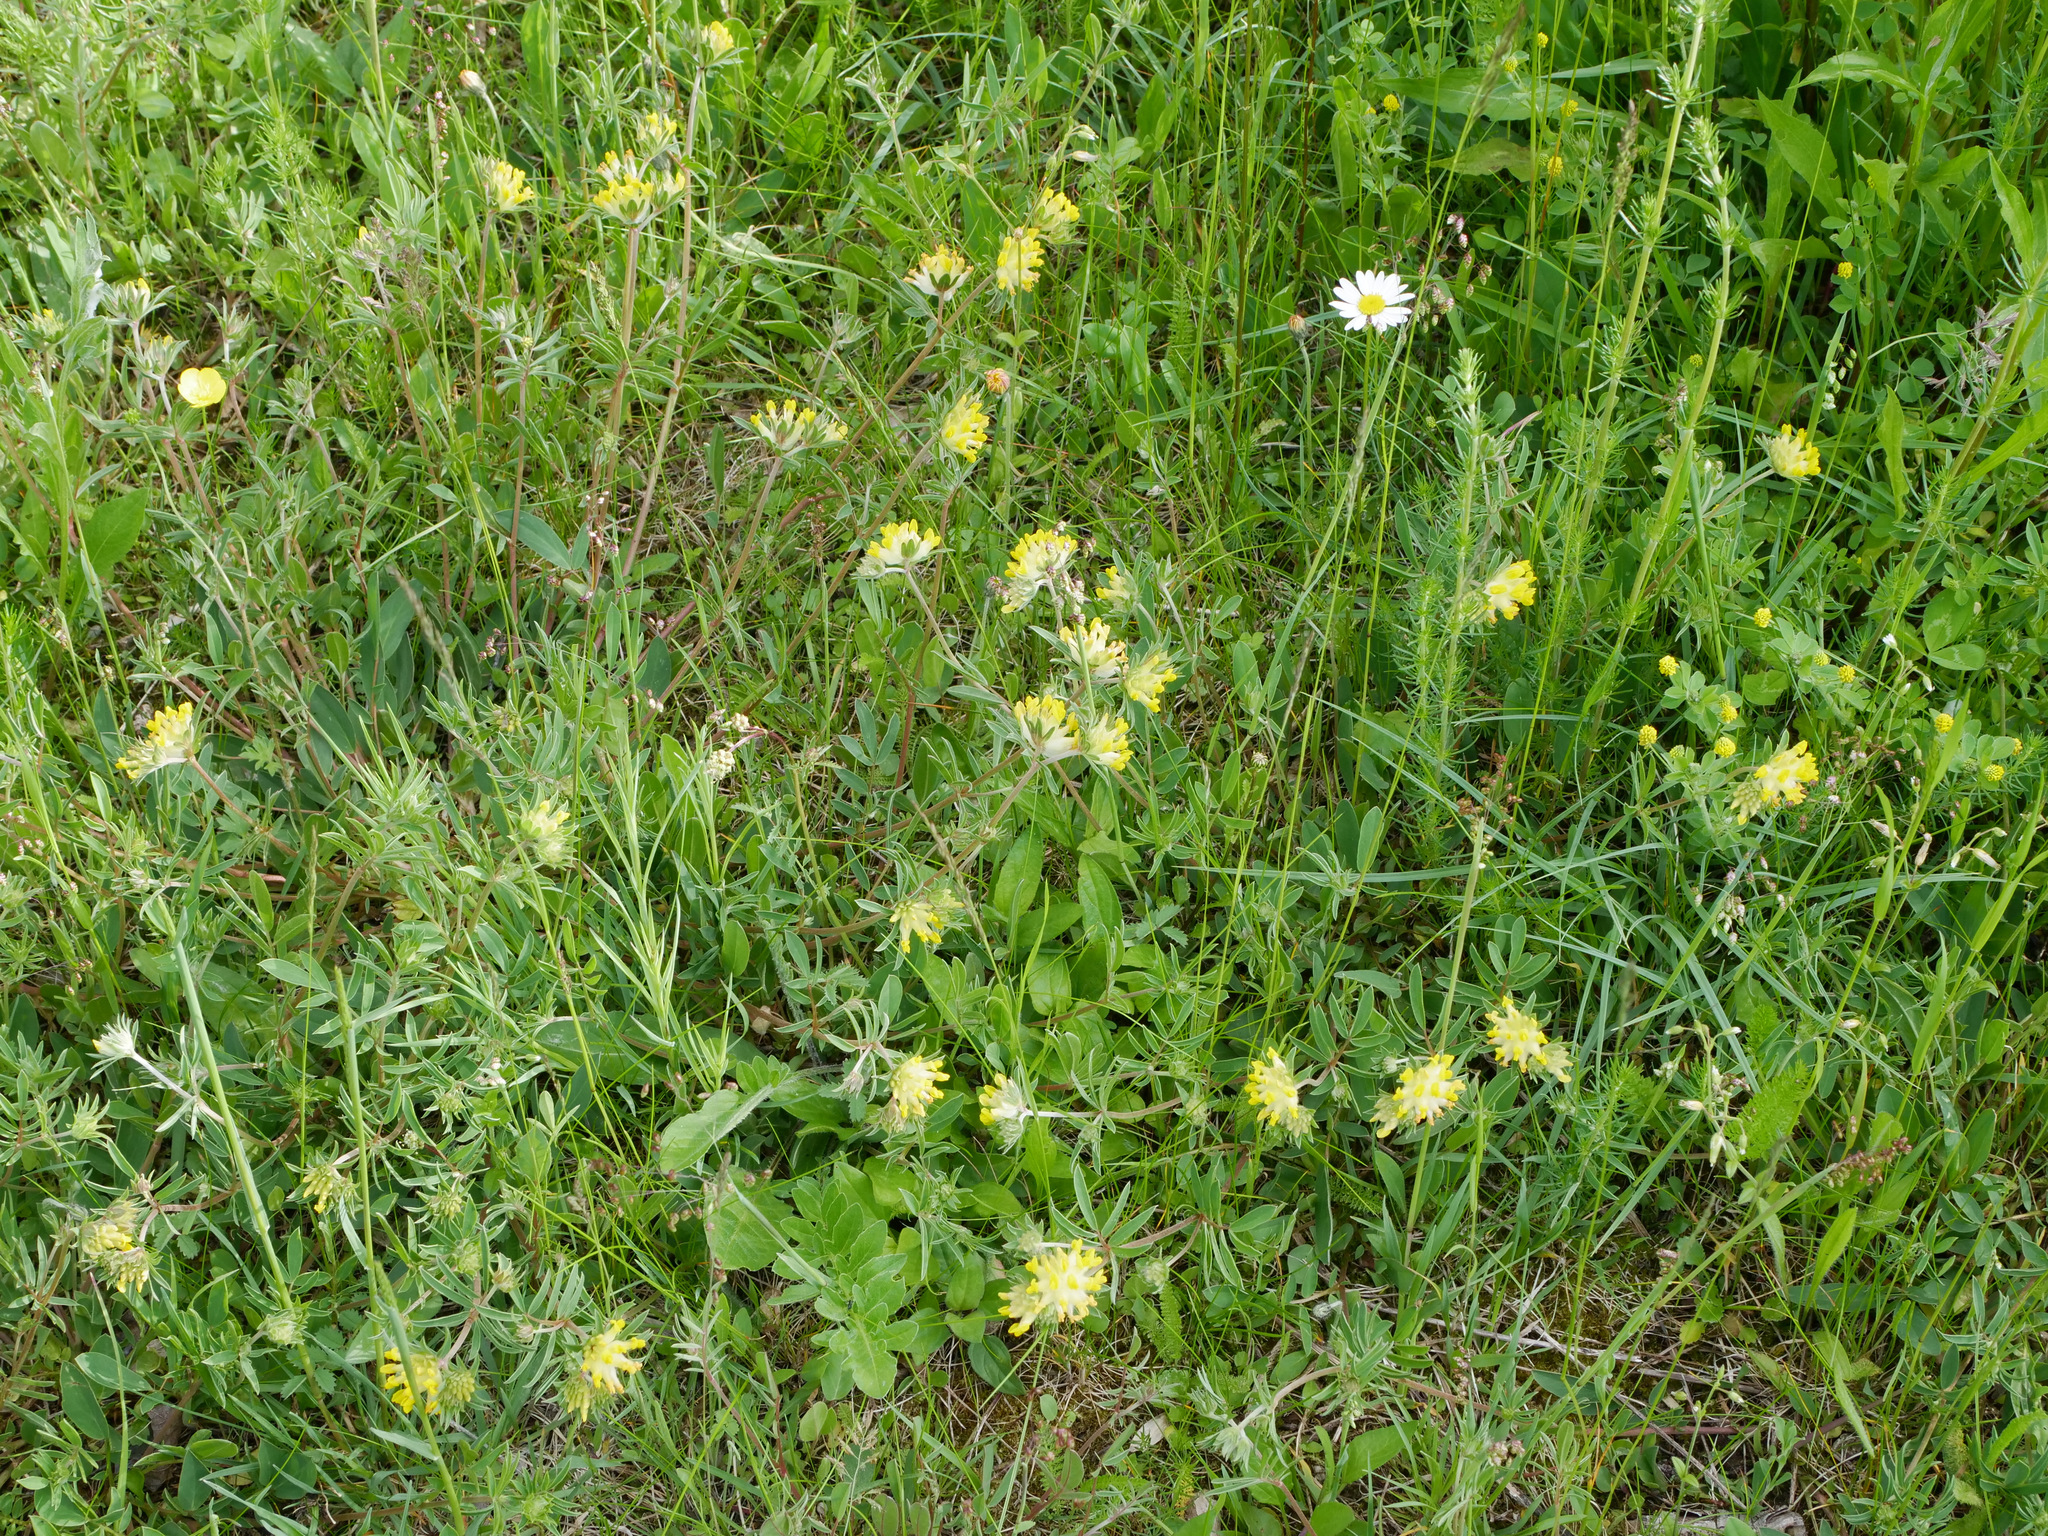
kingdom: Plantae
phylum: Tracheophyta
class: Magnoliopsida
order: Fabales
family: Fabaceae
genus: Anthyllis
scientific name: Anthyllis vulneraria
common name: Kidney vetch
